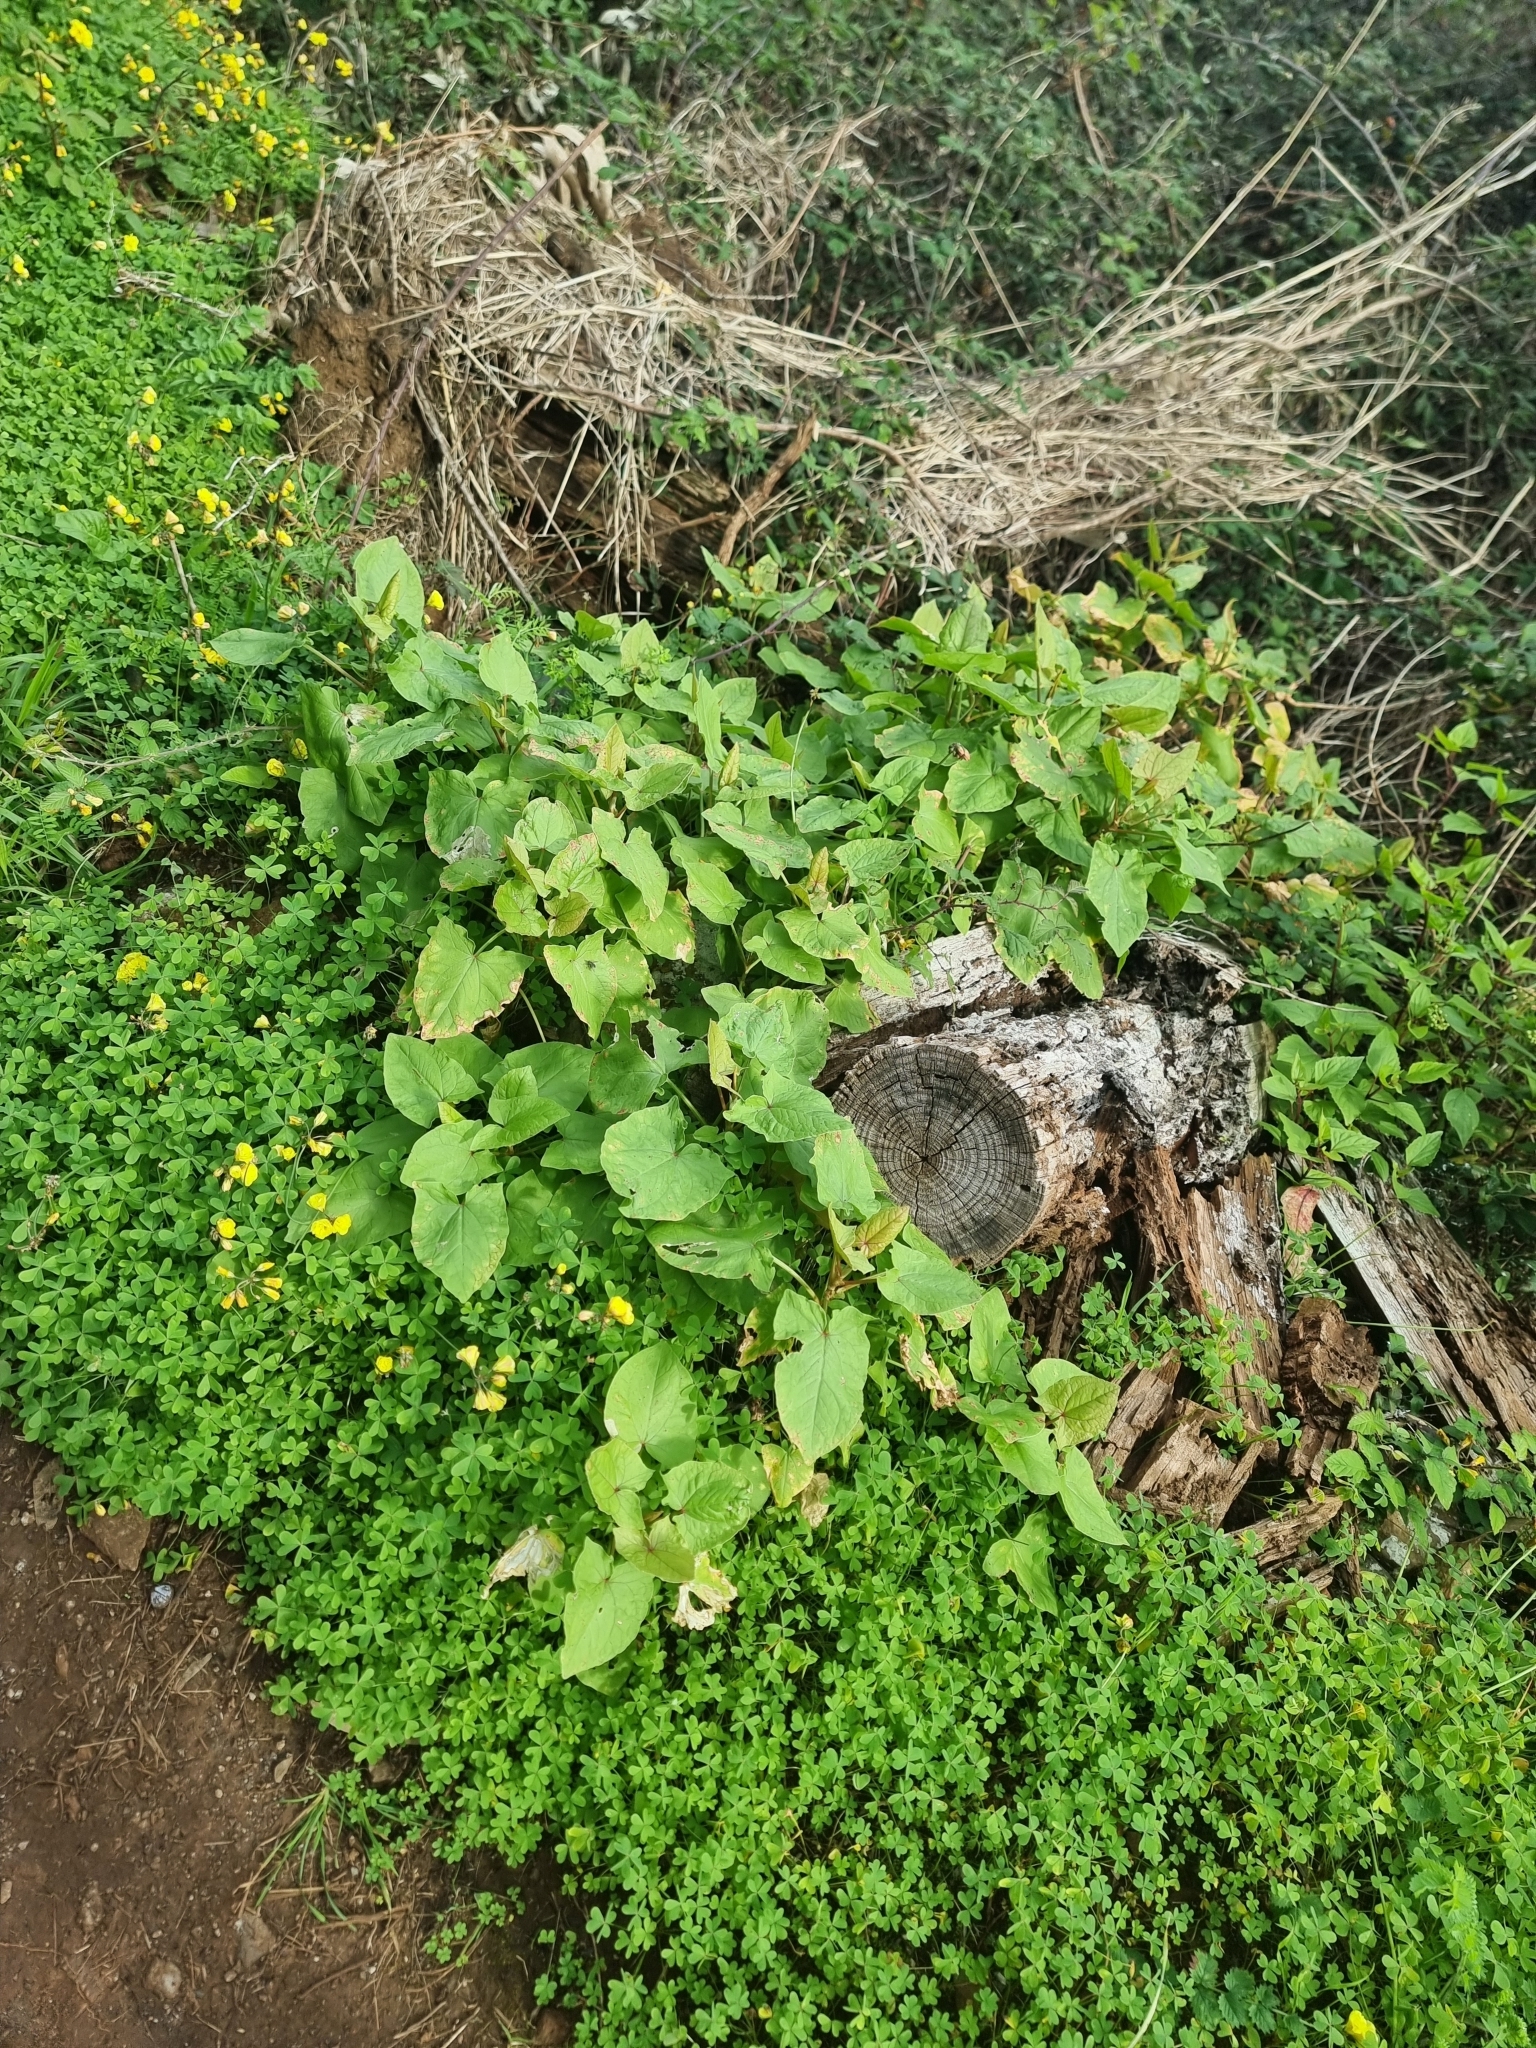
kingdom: Plantae
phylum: Tracheophyta
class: Magnoliopsida
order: Caryophyllales
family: Polygonaceae
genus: Rumex
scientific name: Rumex maderensis
